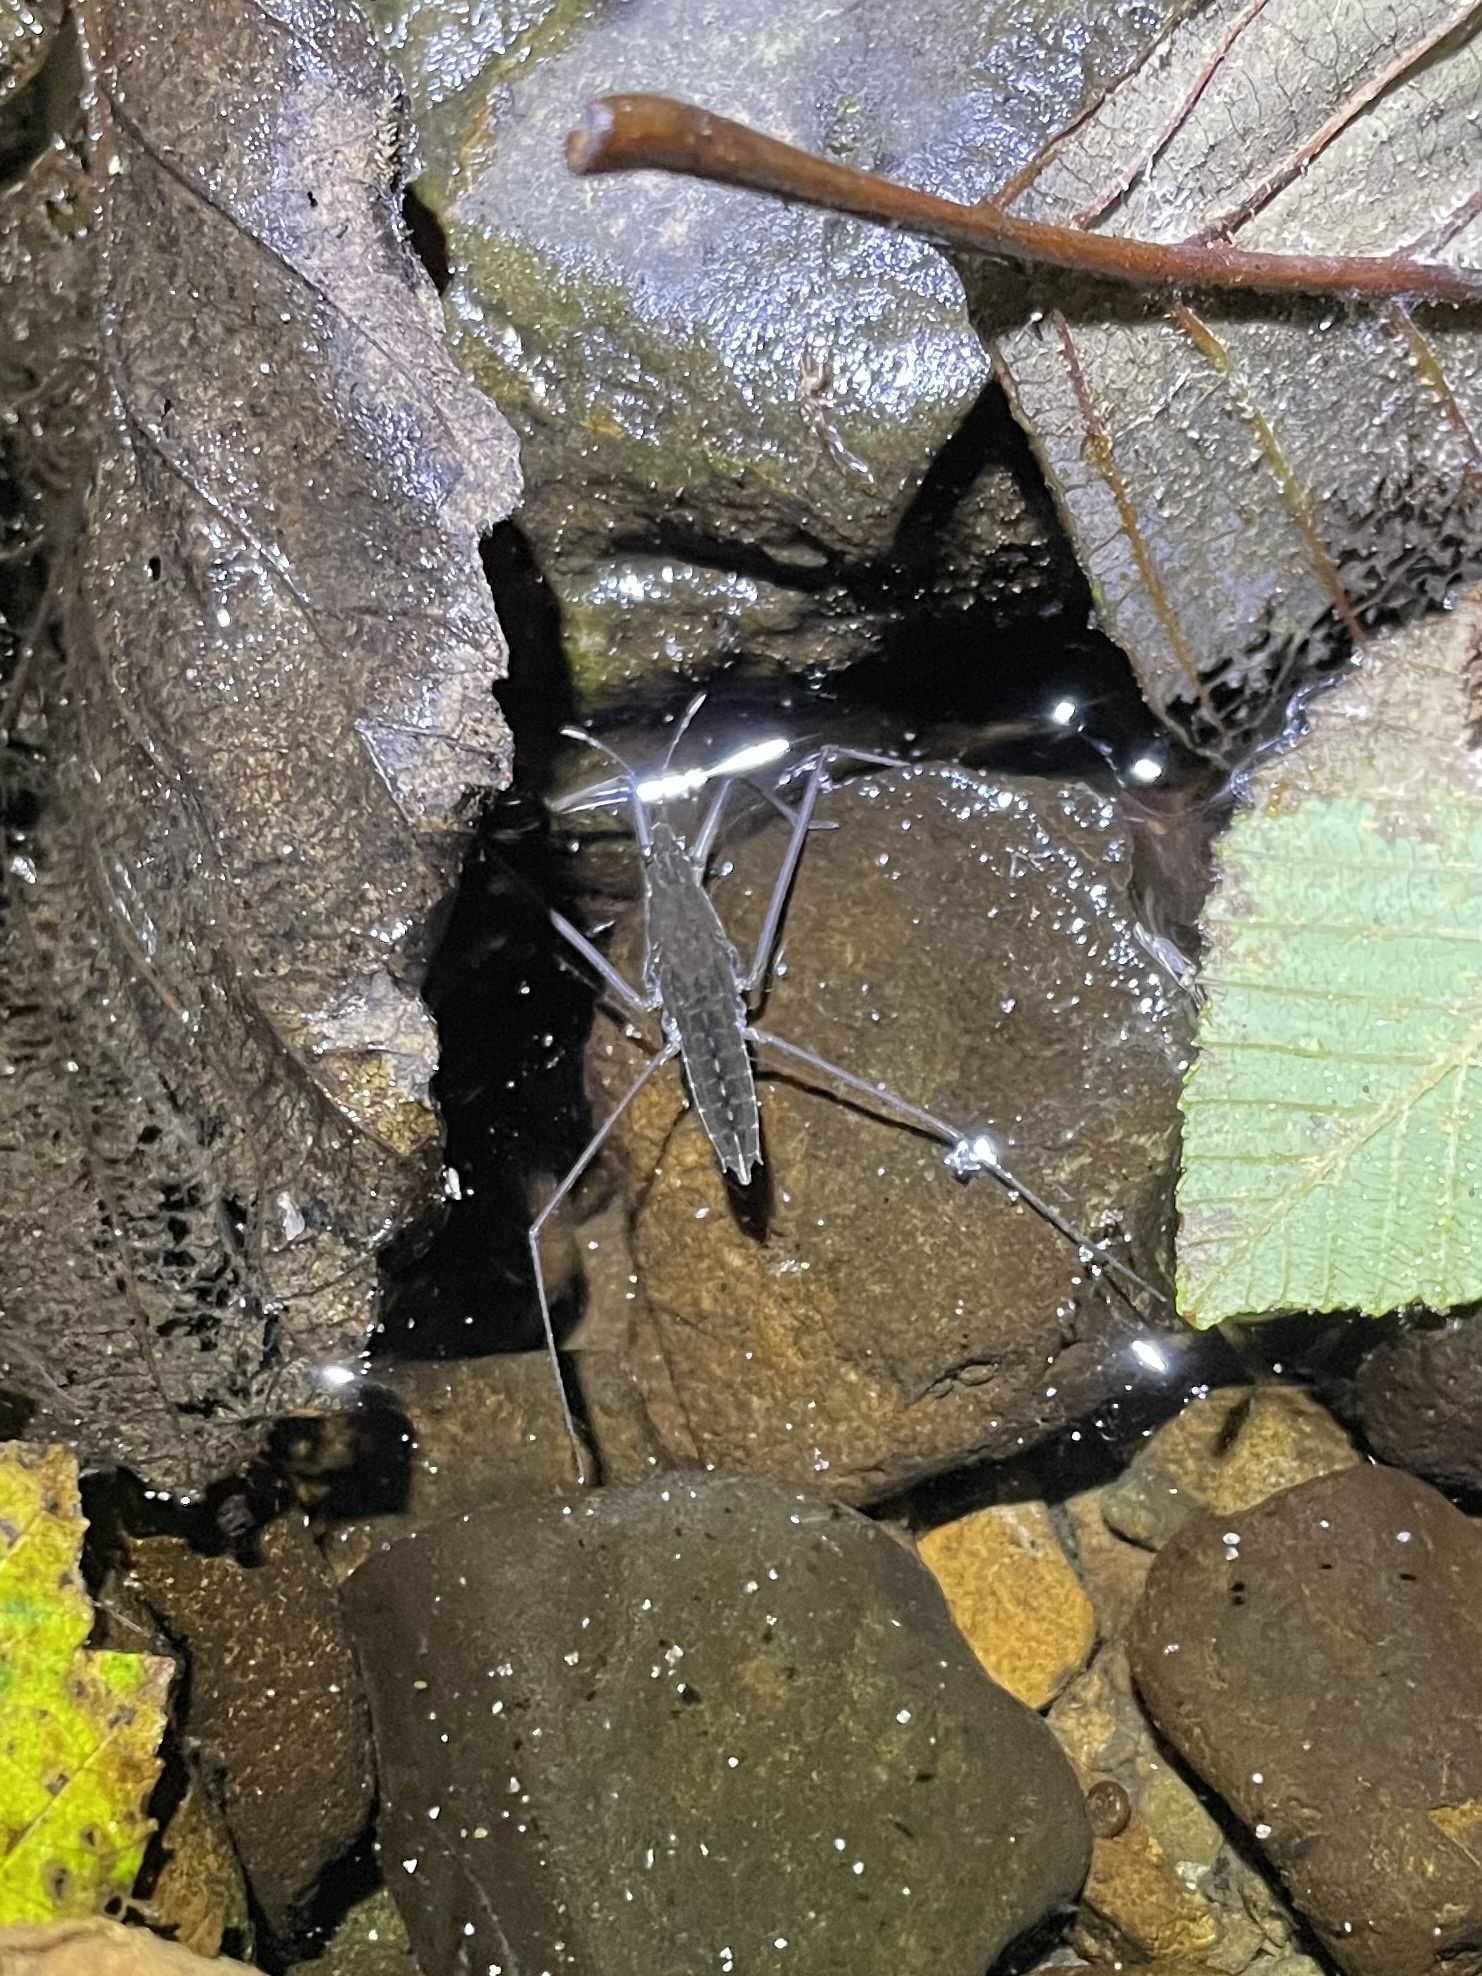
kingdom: Animalia
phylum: Arthropoda
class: Insecta
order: Hemiptera
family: Gerridae
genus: Aquarius
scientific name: Aquarius remigis
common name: Common water strider
